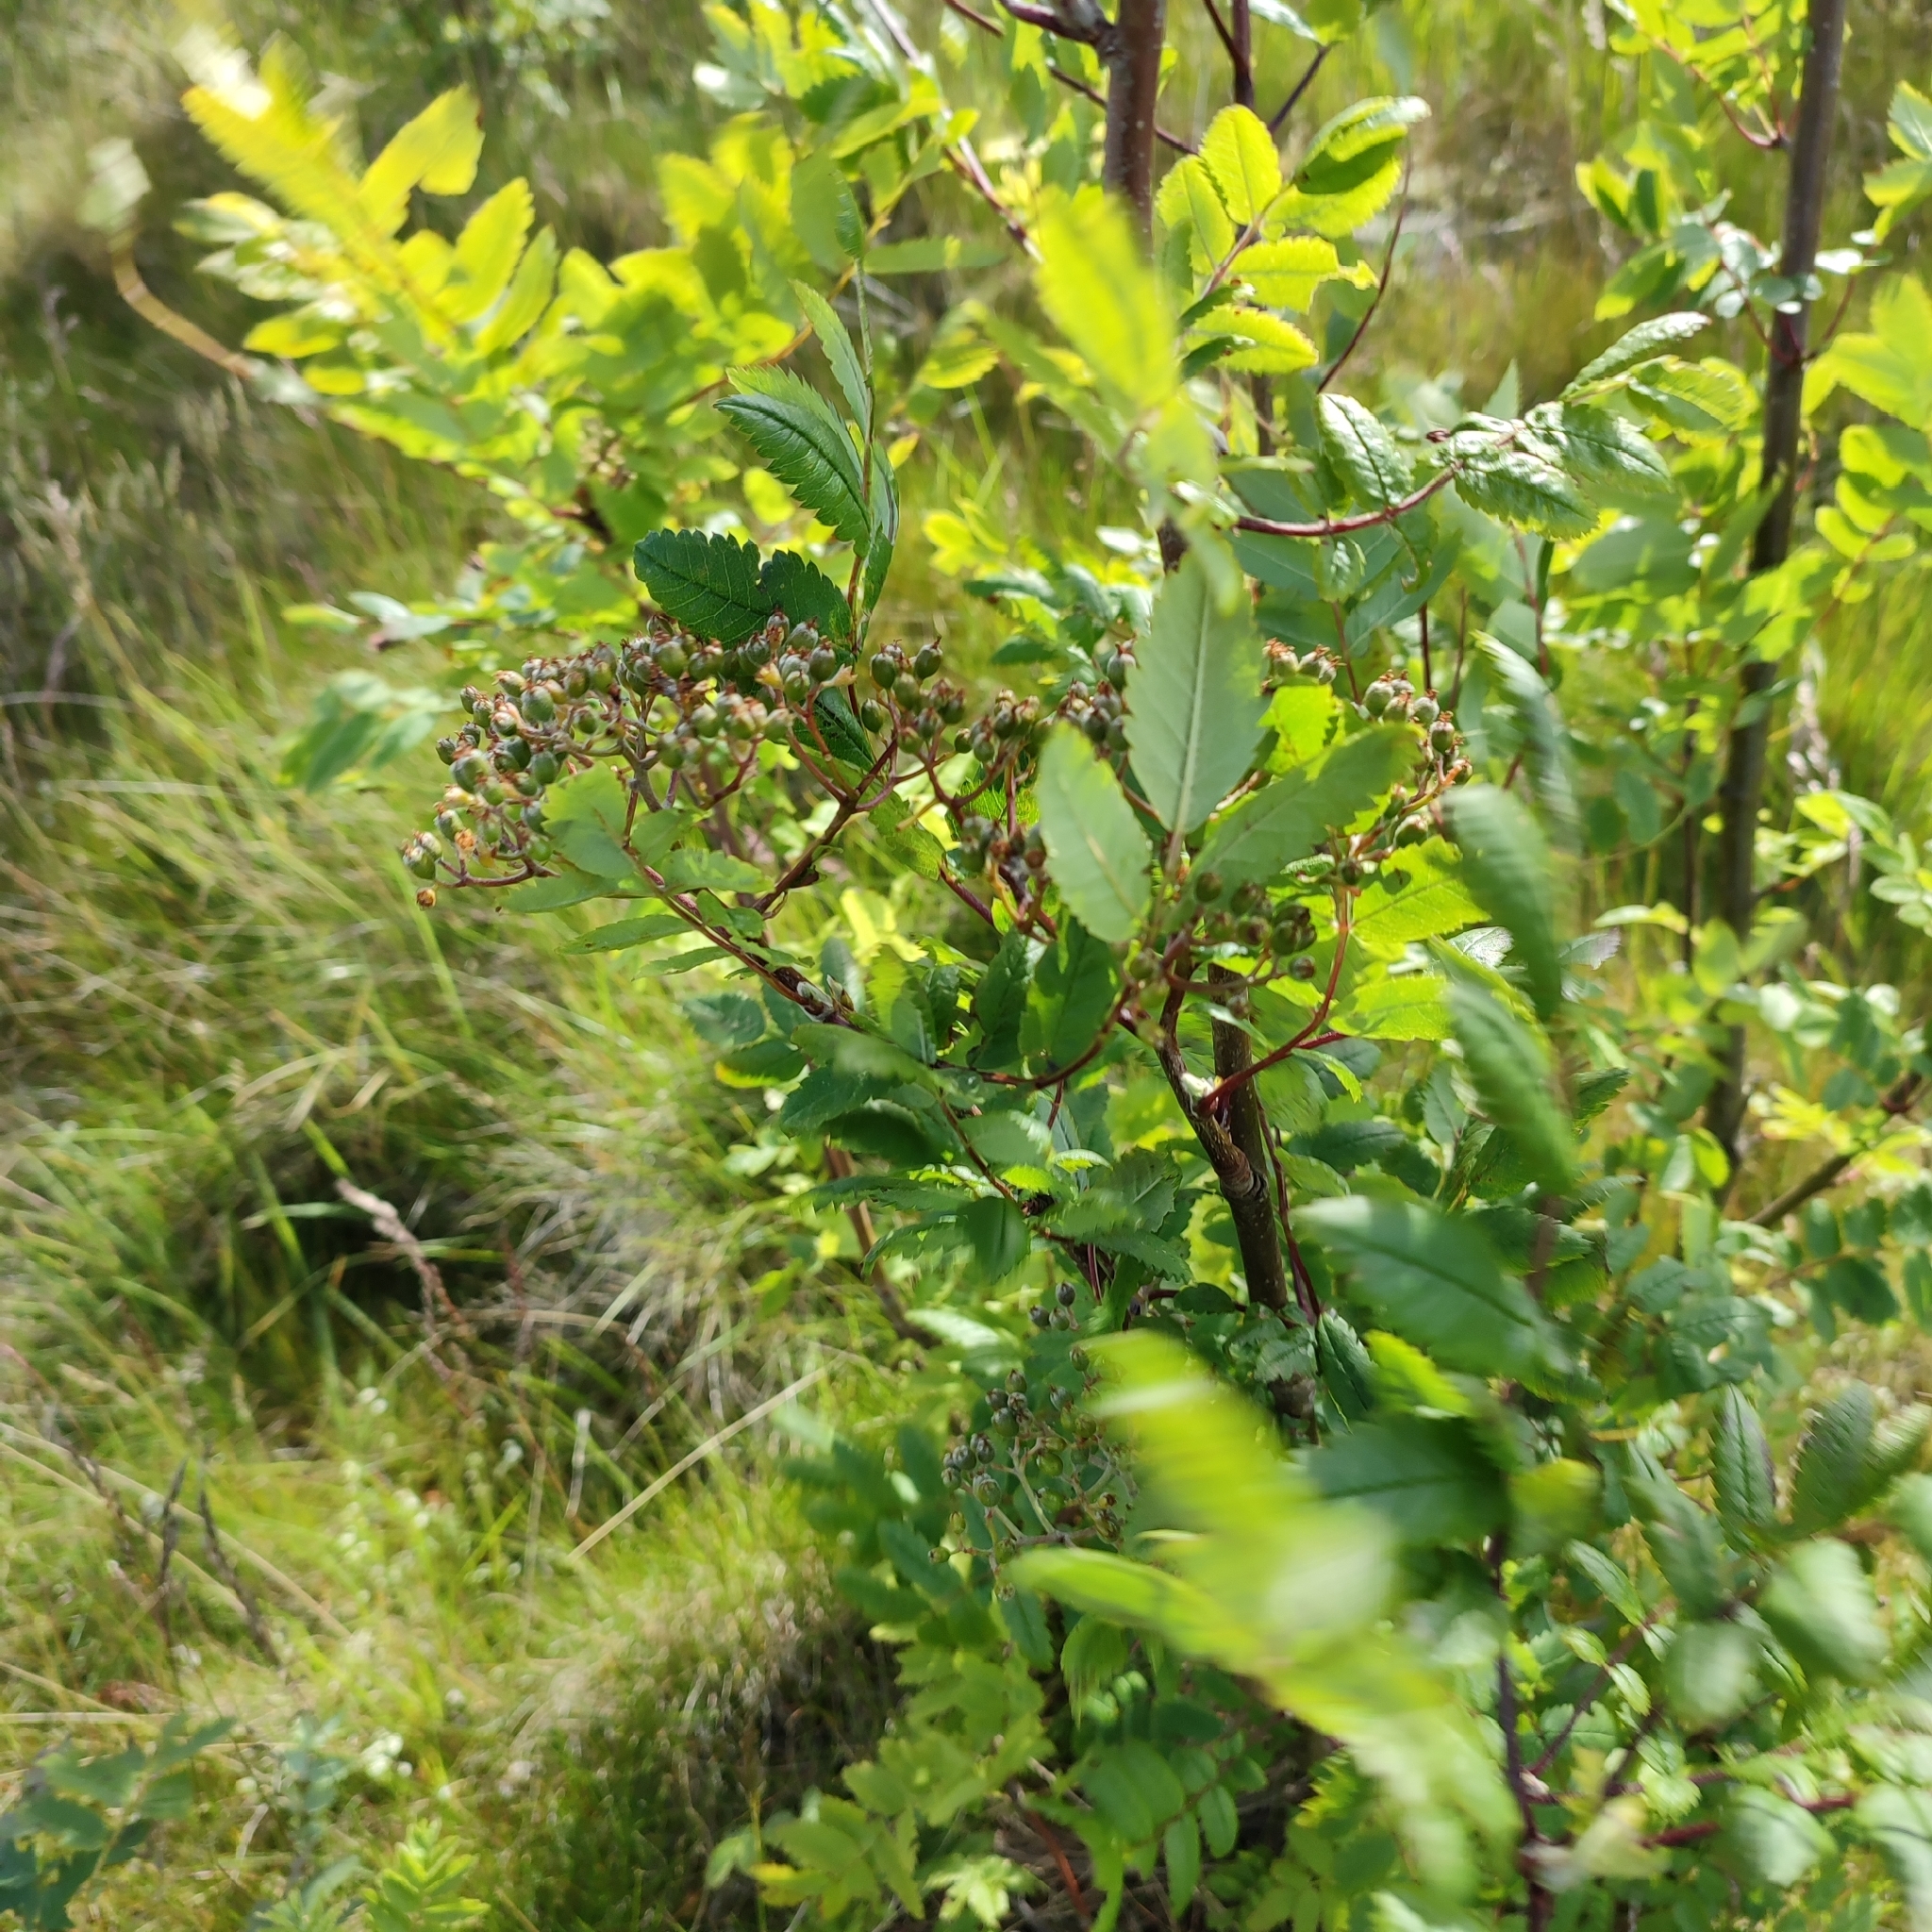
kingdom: Plantae
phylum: Tracheophyta
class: Magnoliopsida
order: Rosales
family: Rosaceae
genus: Sorbus
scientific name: Sorbus aucuparia
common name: Rowan
